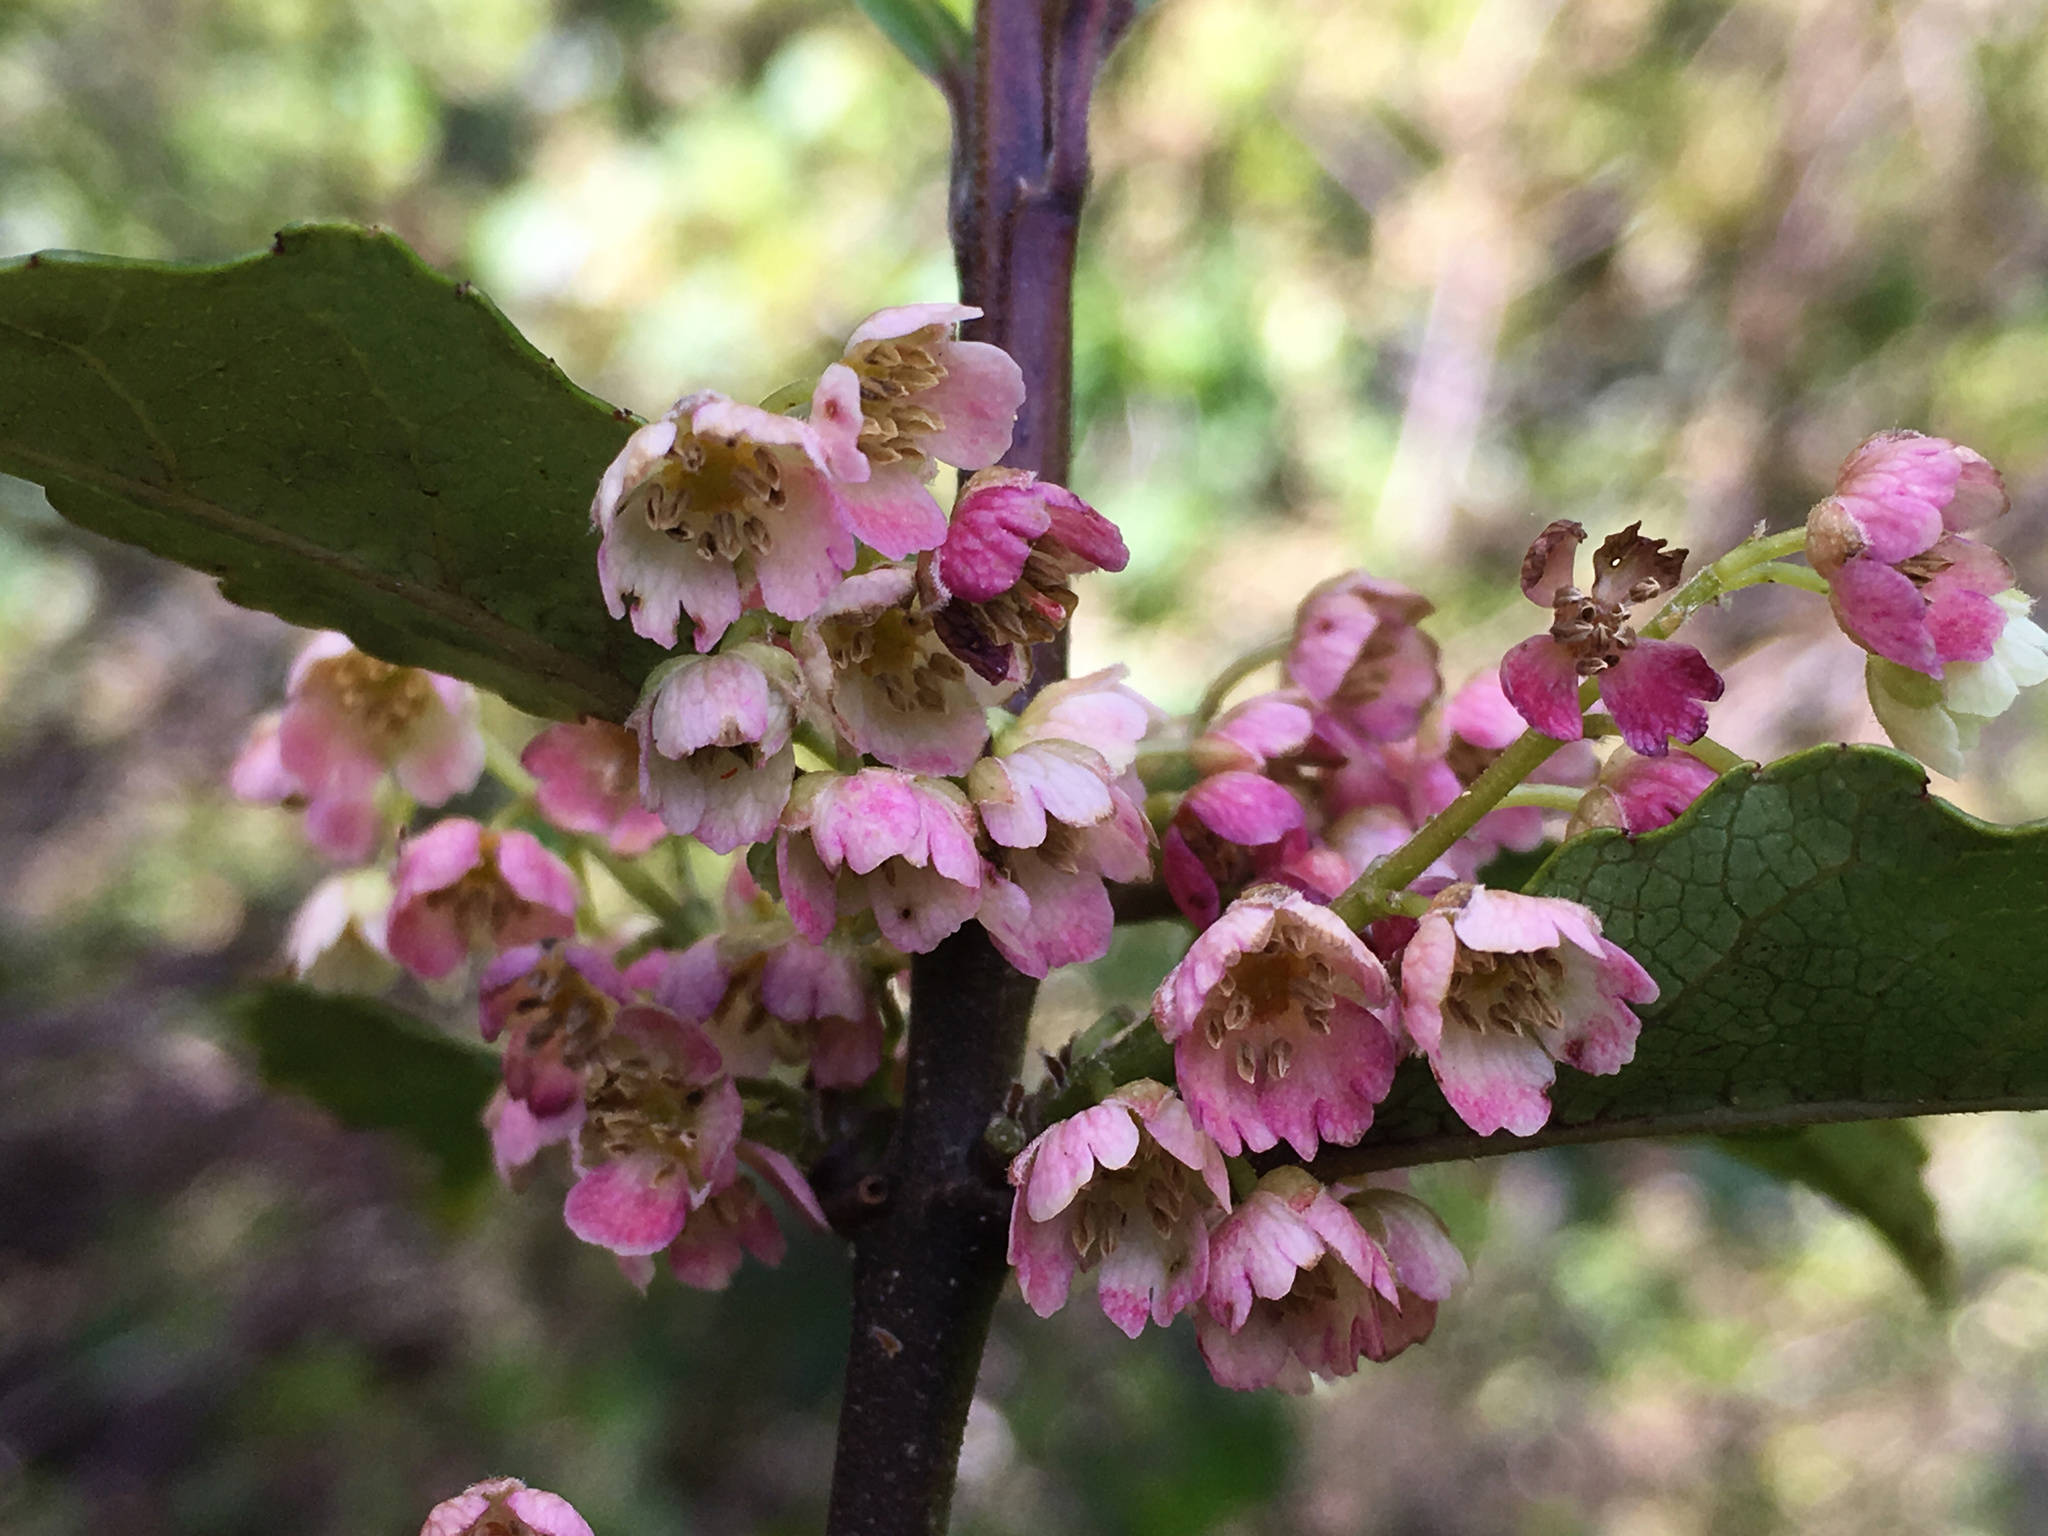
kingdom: Plantae
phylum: Tracheophyta
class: Magnoliopsida
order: Oxalidales
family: Elaeocarpaceae
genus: Aristotelia
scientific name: Aristotelia
